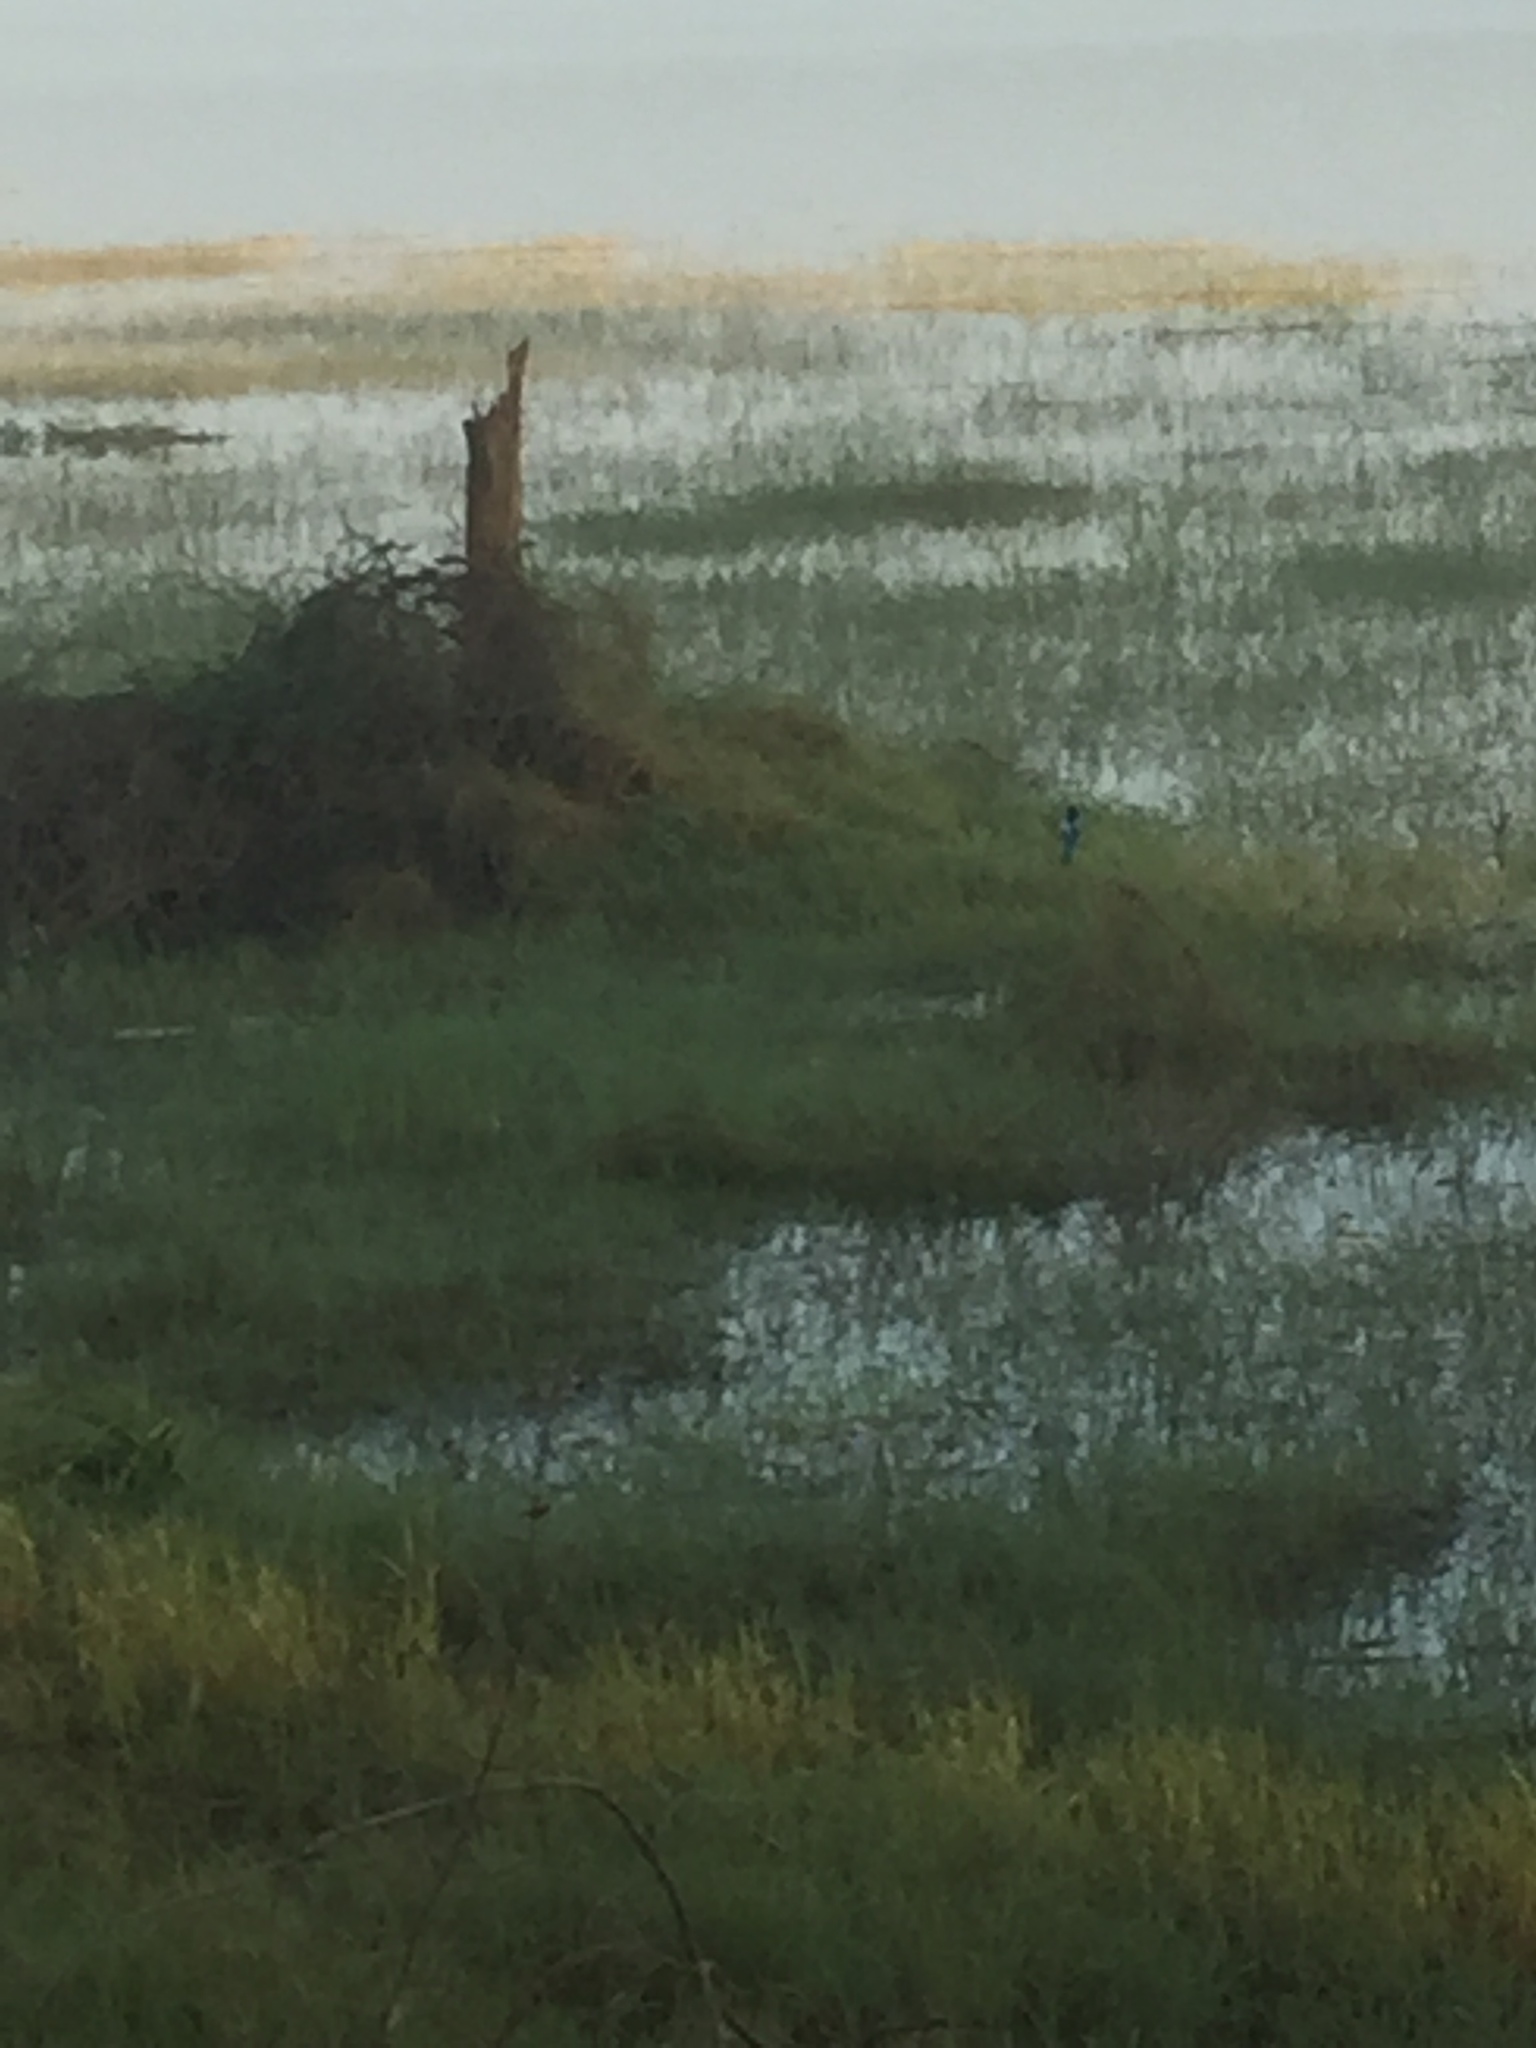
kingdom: Animalia
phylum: Chordata
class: Aves
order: Coraciiformes
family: Alcedinidae
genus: Halcyon
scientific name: Halcyon smyrnensis
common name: White-throated kingfisher
